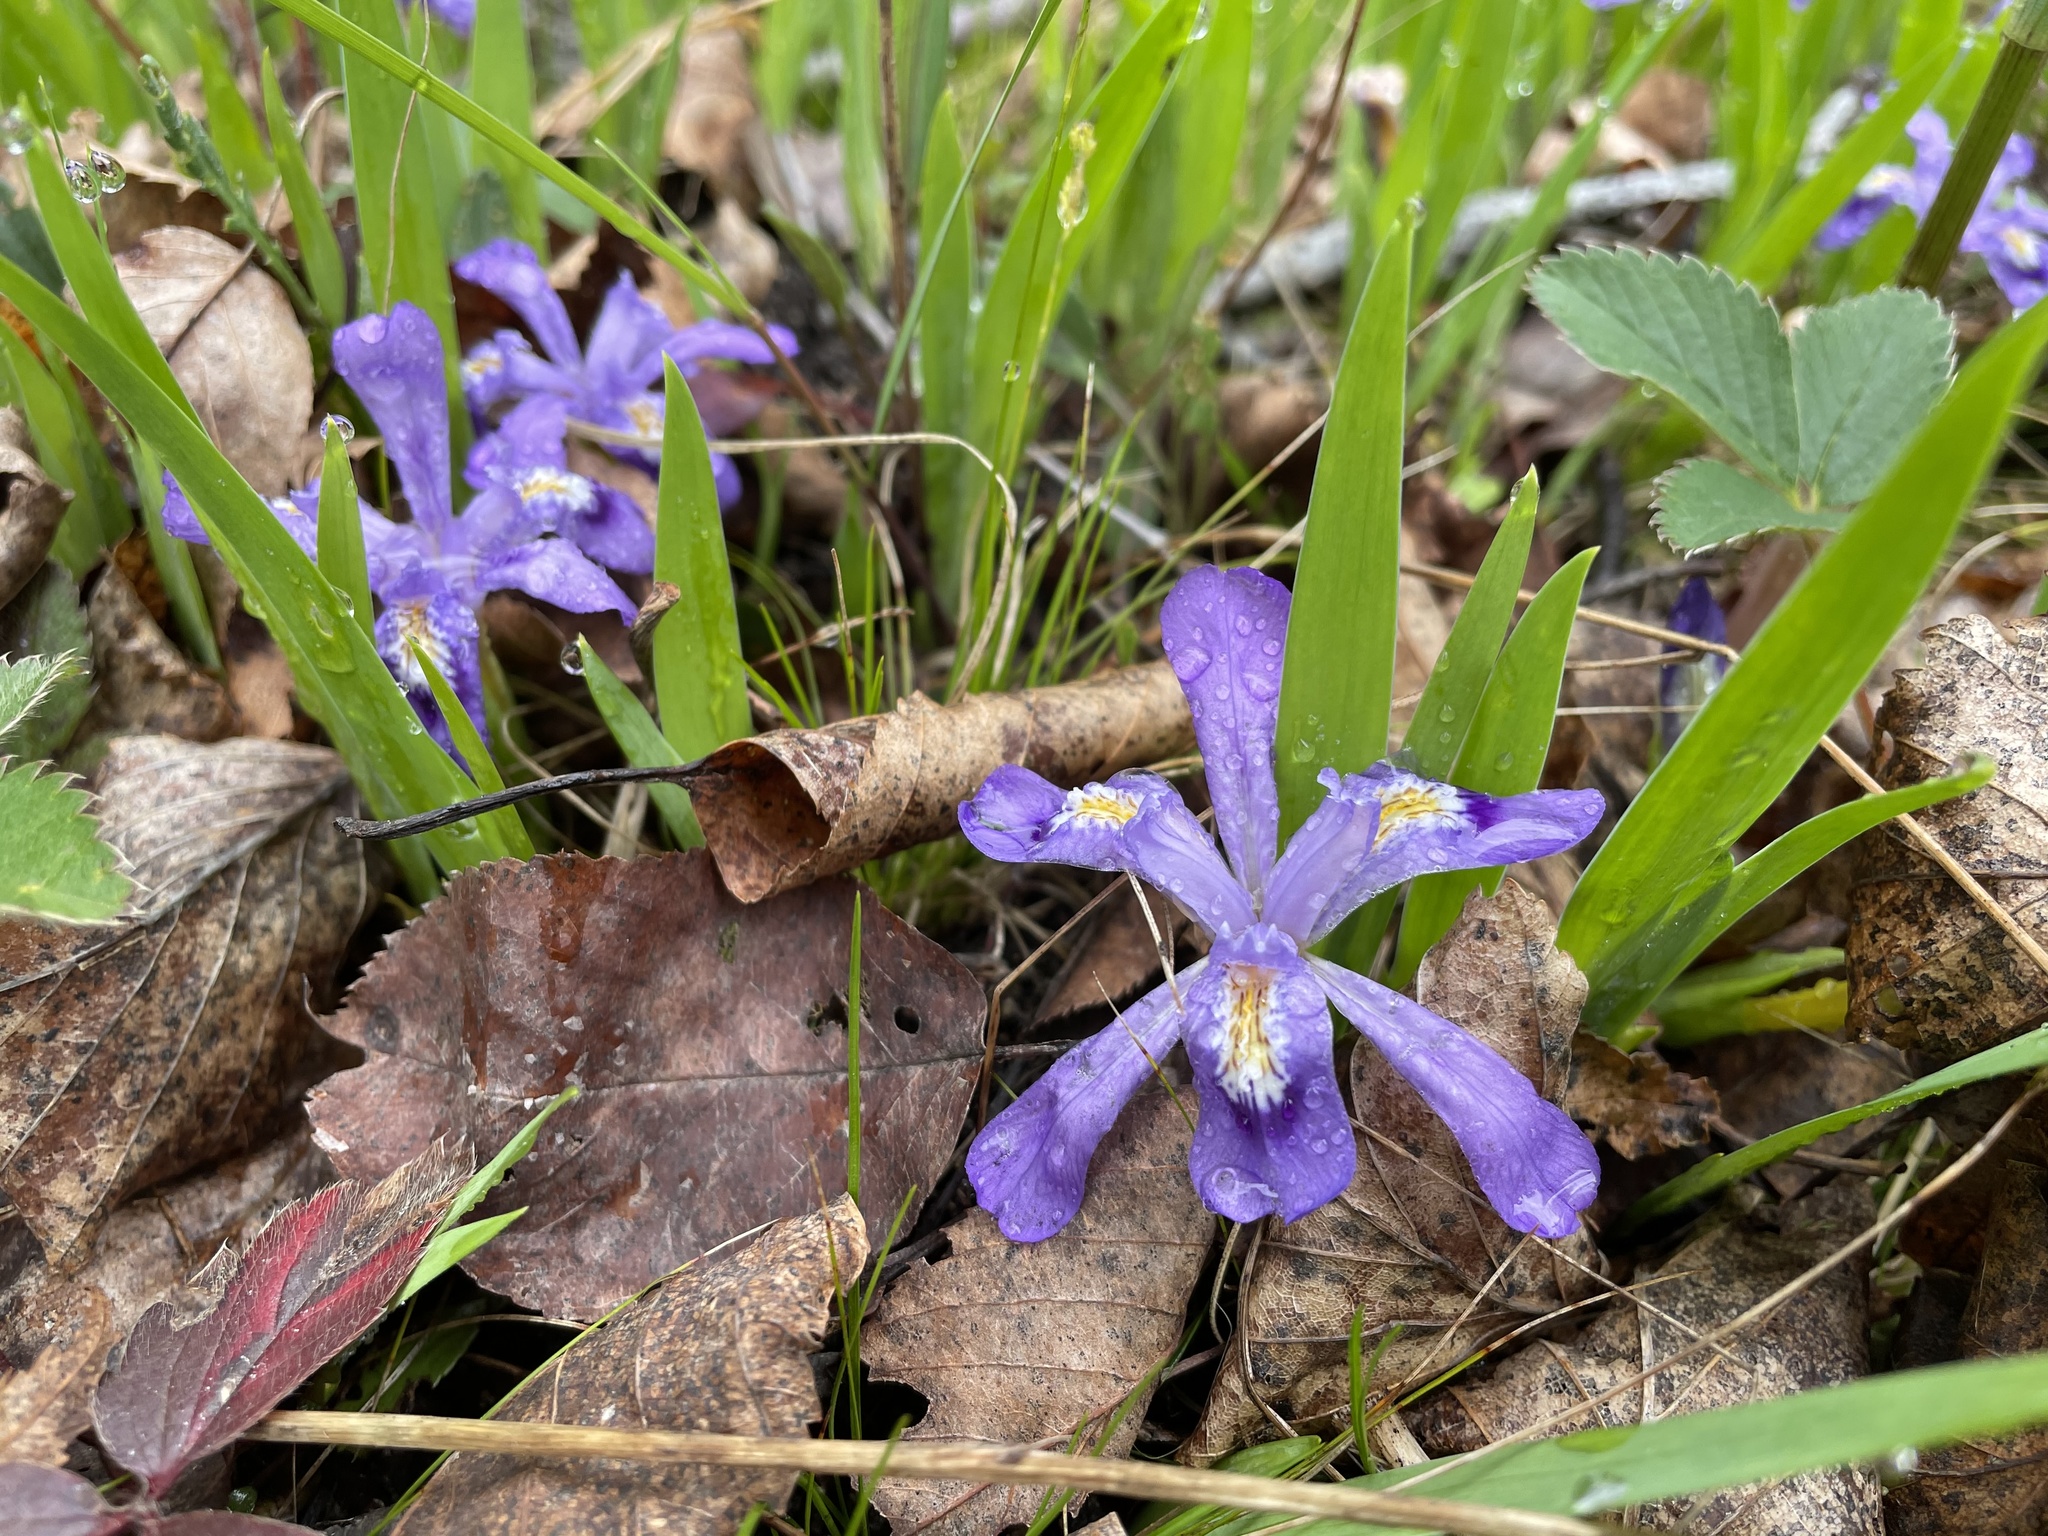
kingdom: Plantae
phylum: Tracheophyta
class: Liliopsida
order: Asparagales
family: Iridaceae
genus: Iris
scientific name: Iris lacustris
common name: Dwarf lake iris
